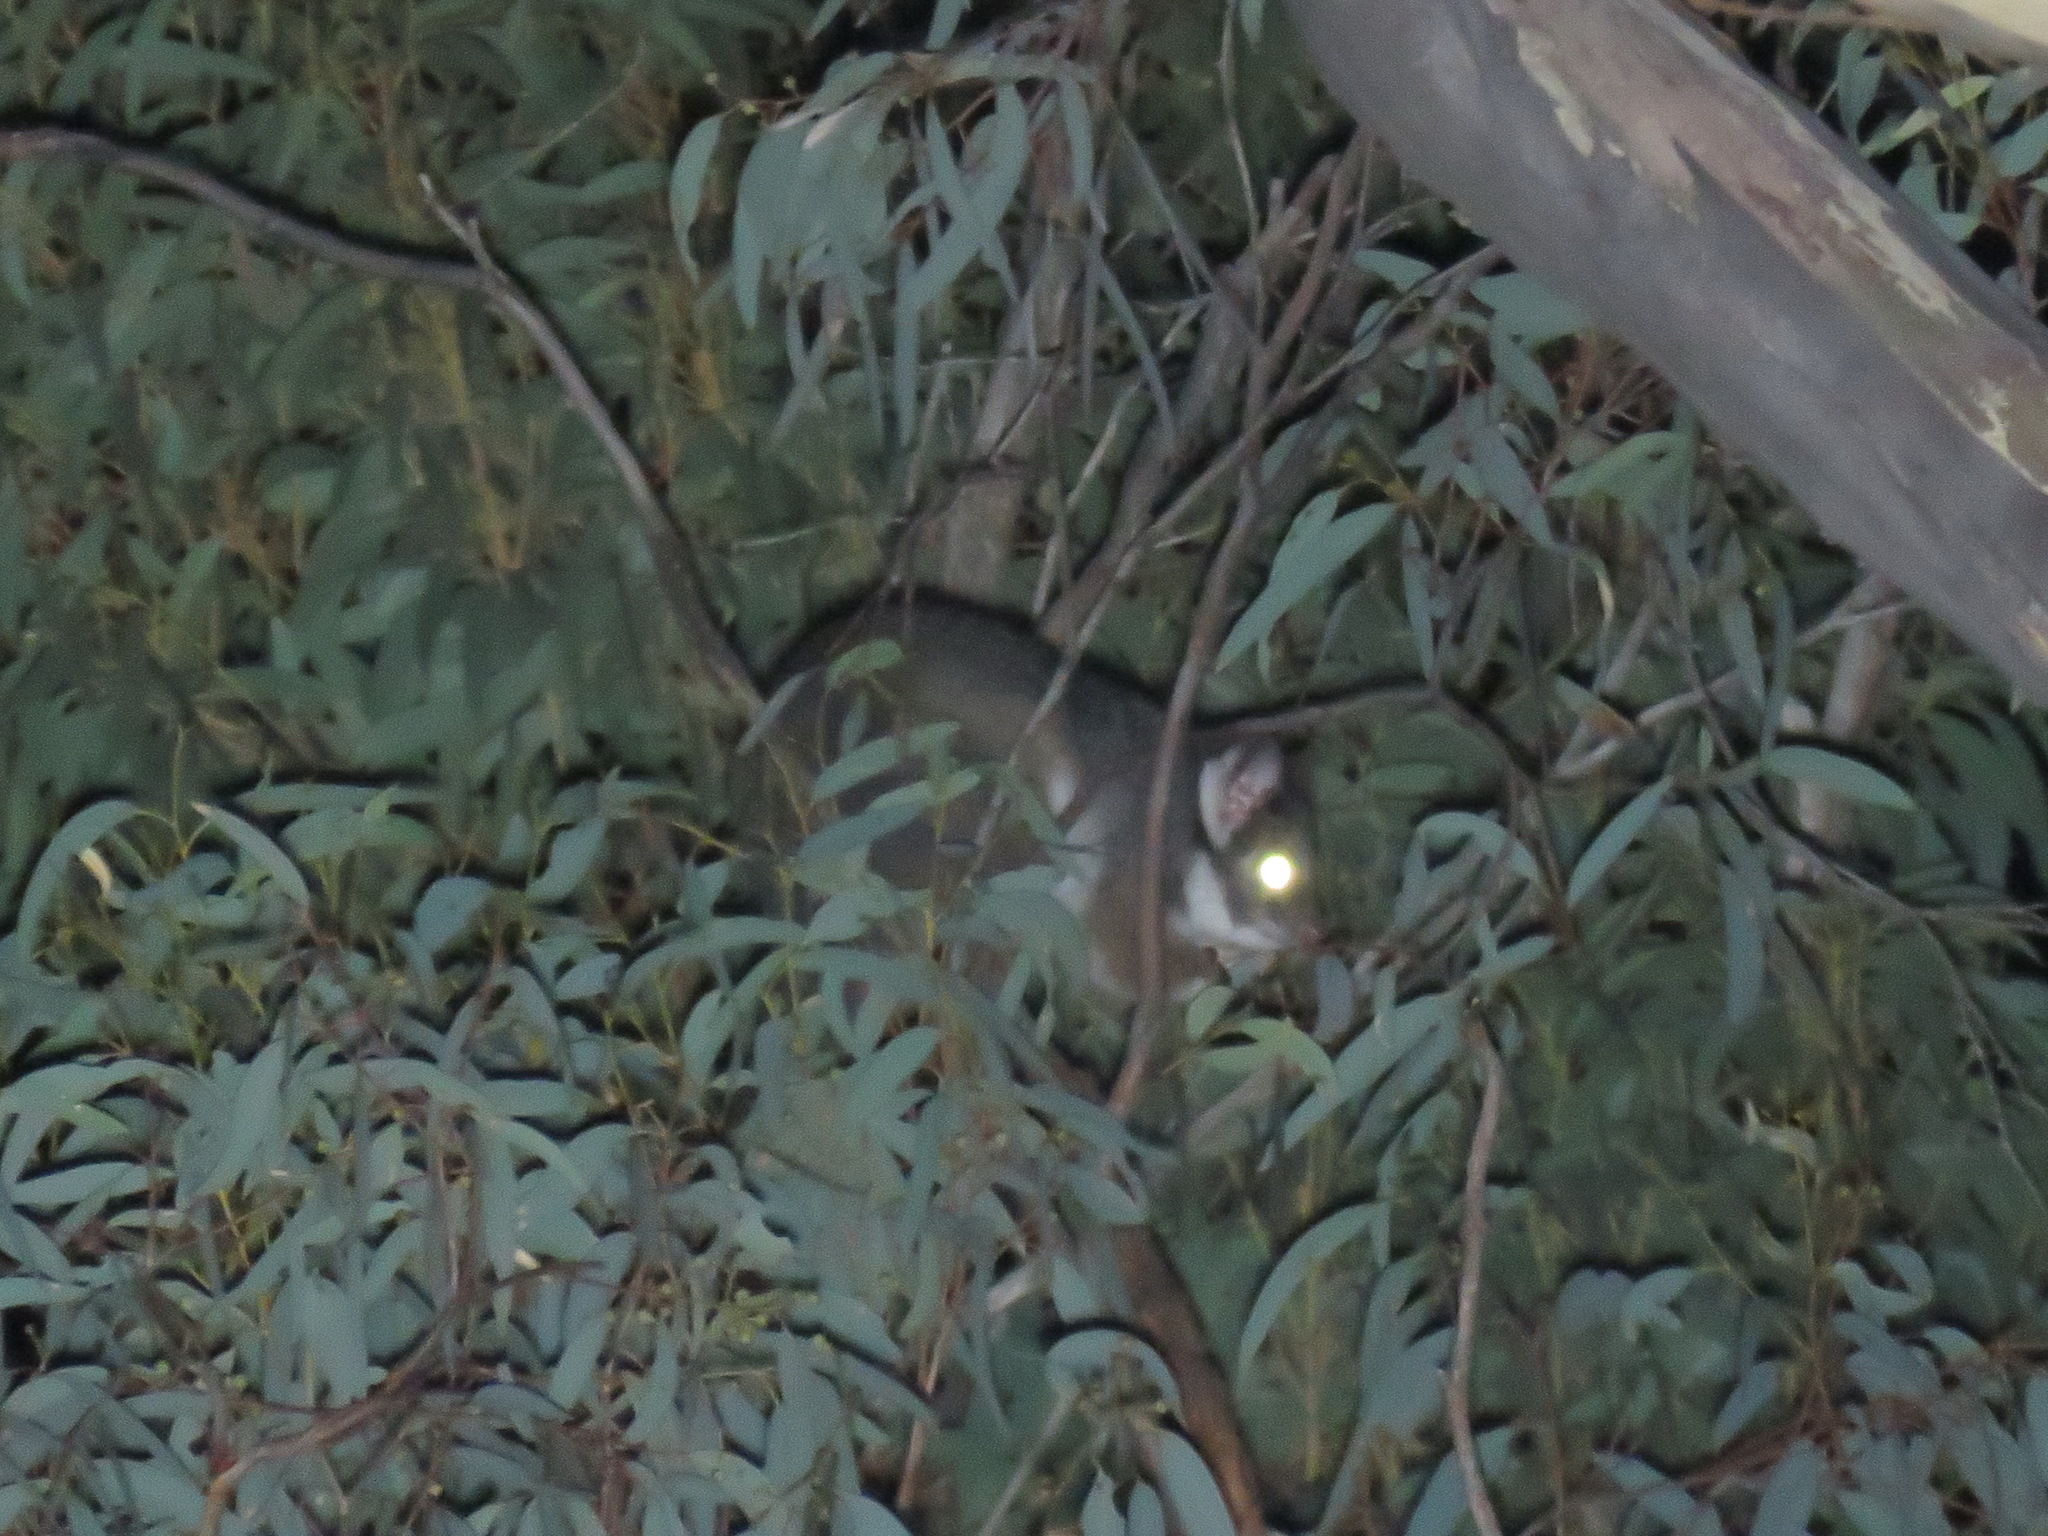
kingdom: Animalia
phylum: Chordata
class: Mammalia
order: Diprotodontia
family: Pseudocheiridae
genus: Pseudocheirus
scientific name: Pseudocheirus peregrinus
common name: Common ringtail possum
